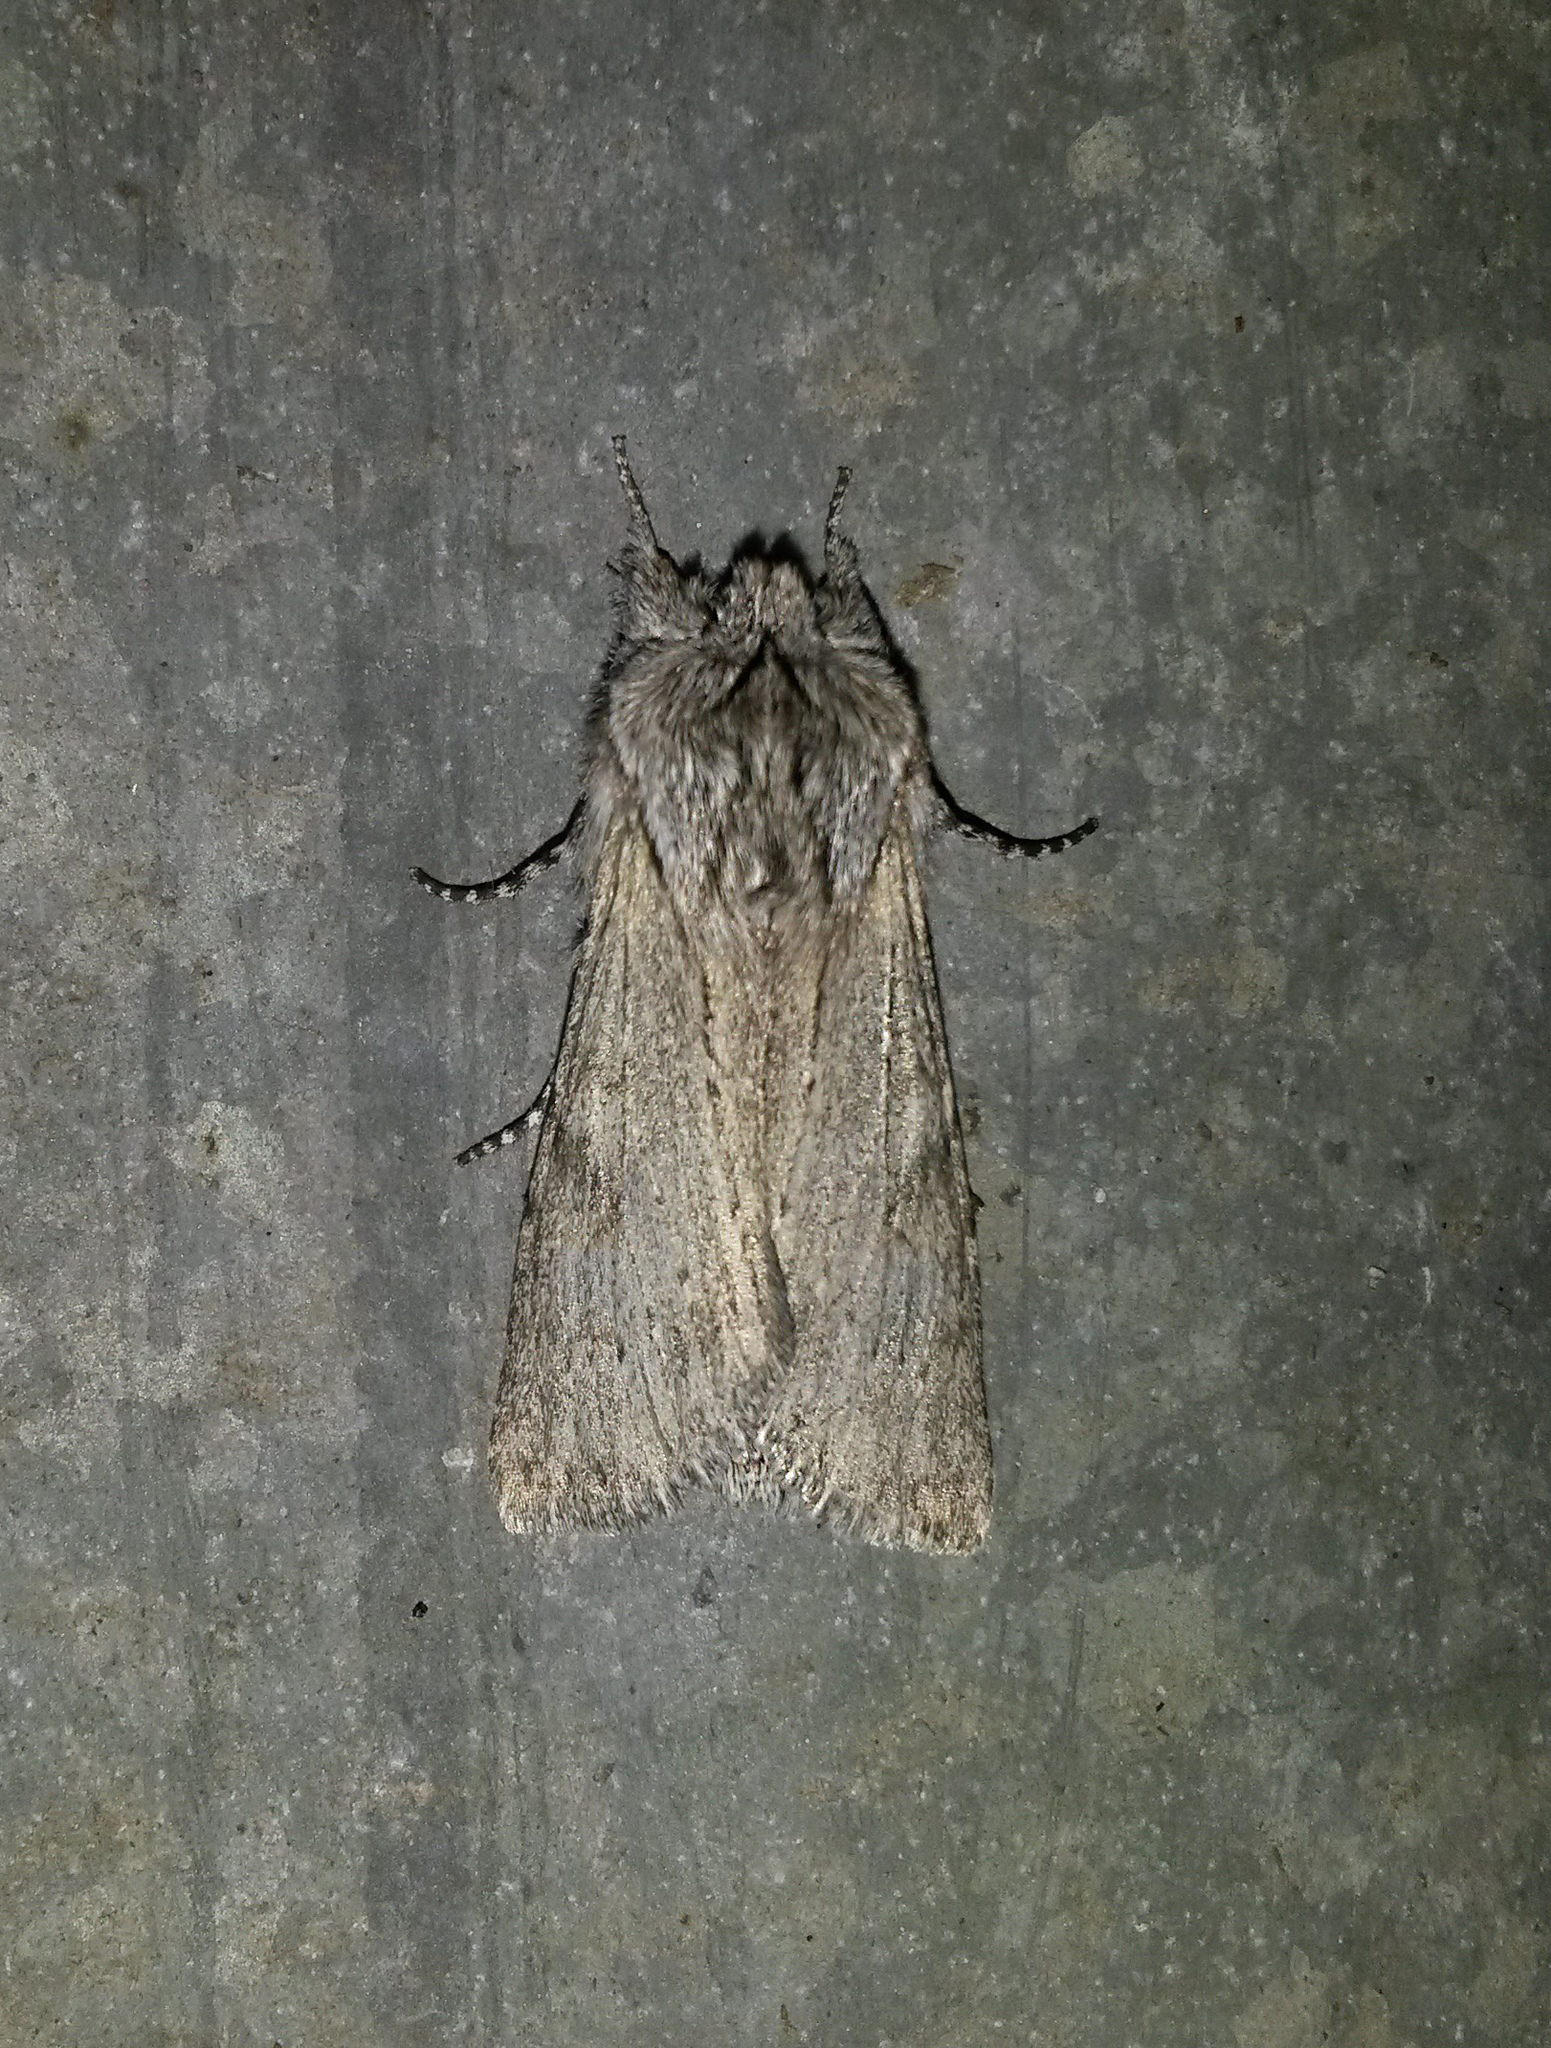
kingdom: Animalia
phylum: Arthropoda
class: Insecta
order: Lepidoptera
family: Notodontidae
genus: Dicranura
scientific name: Dicranura ulmi
